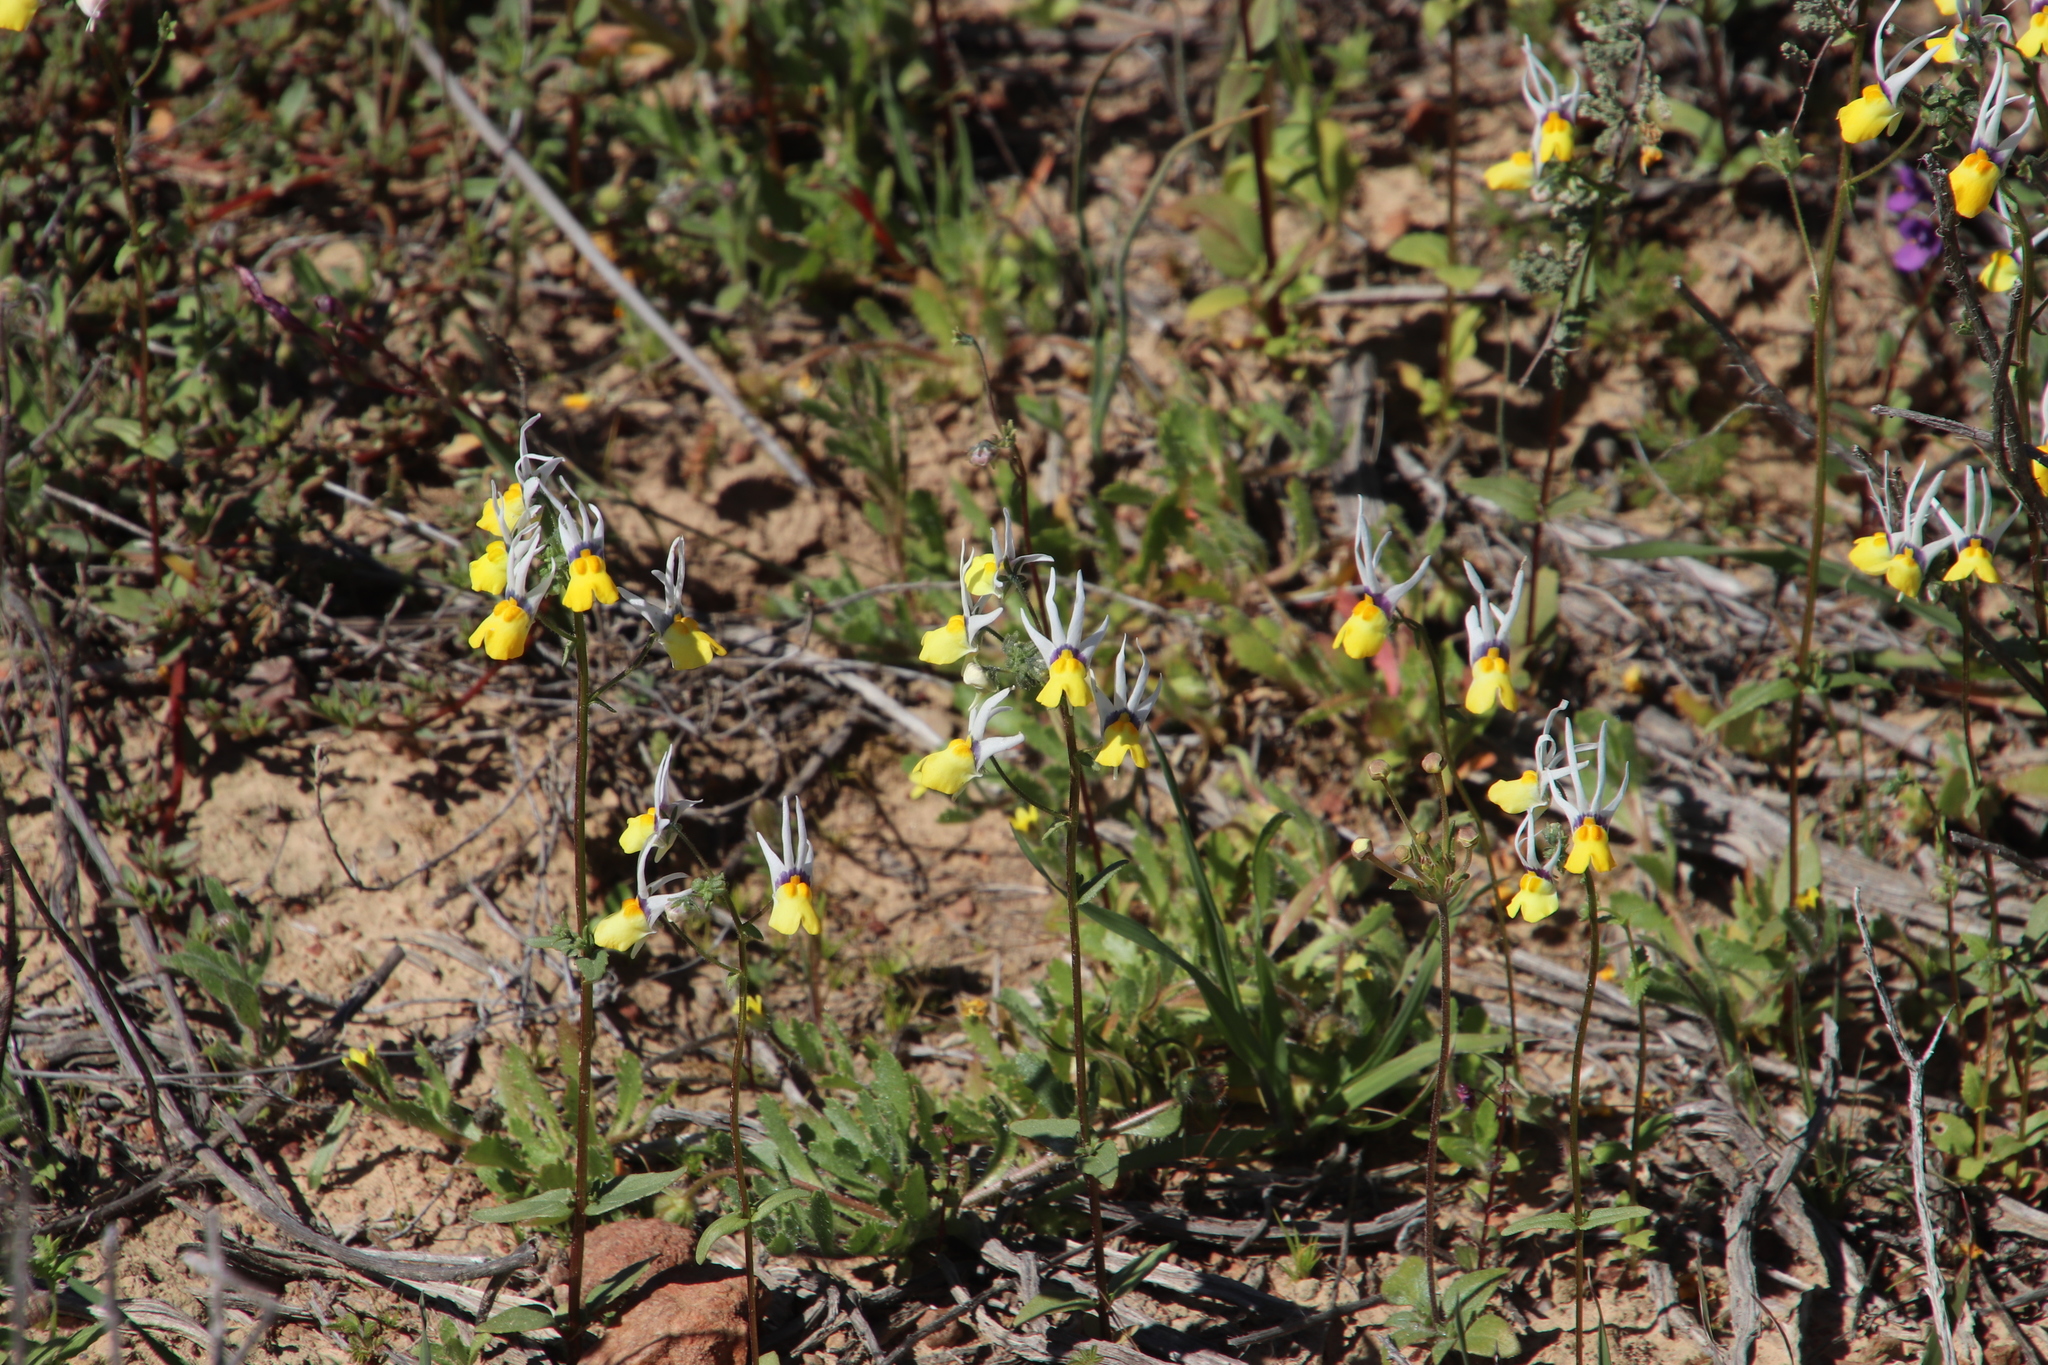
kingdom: Plantae
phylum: Tracheophyta
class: Magnoliopsida
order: Lamiales
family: Scrophulariaceae
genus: Nemesia
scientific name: Nemesia cheiranthus
